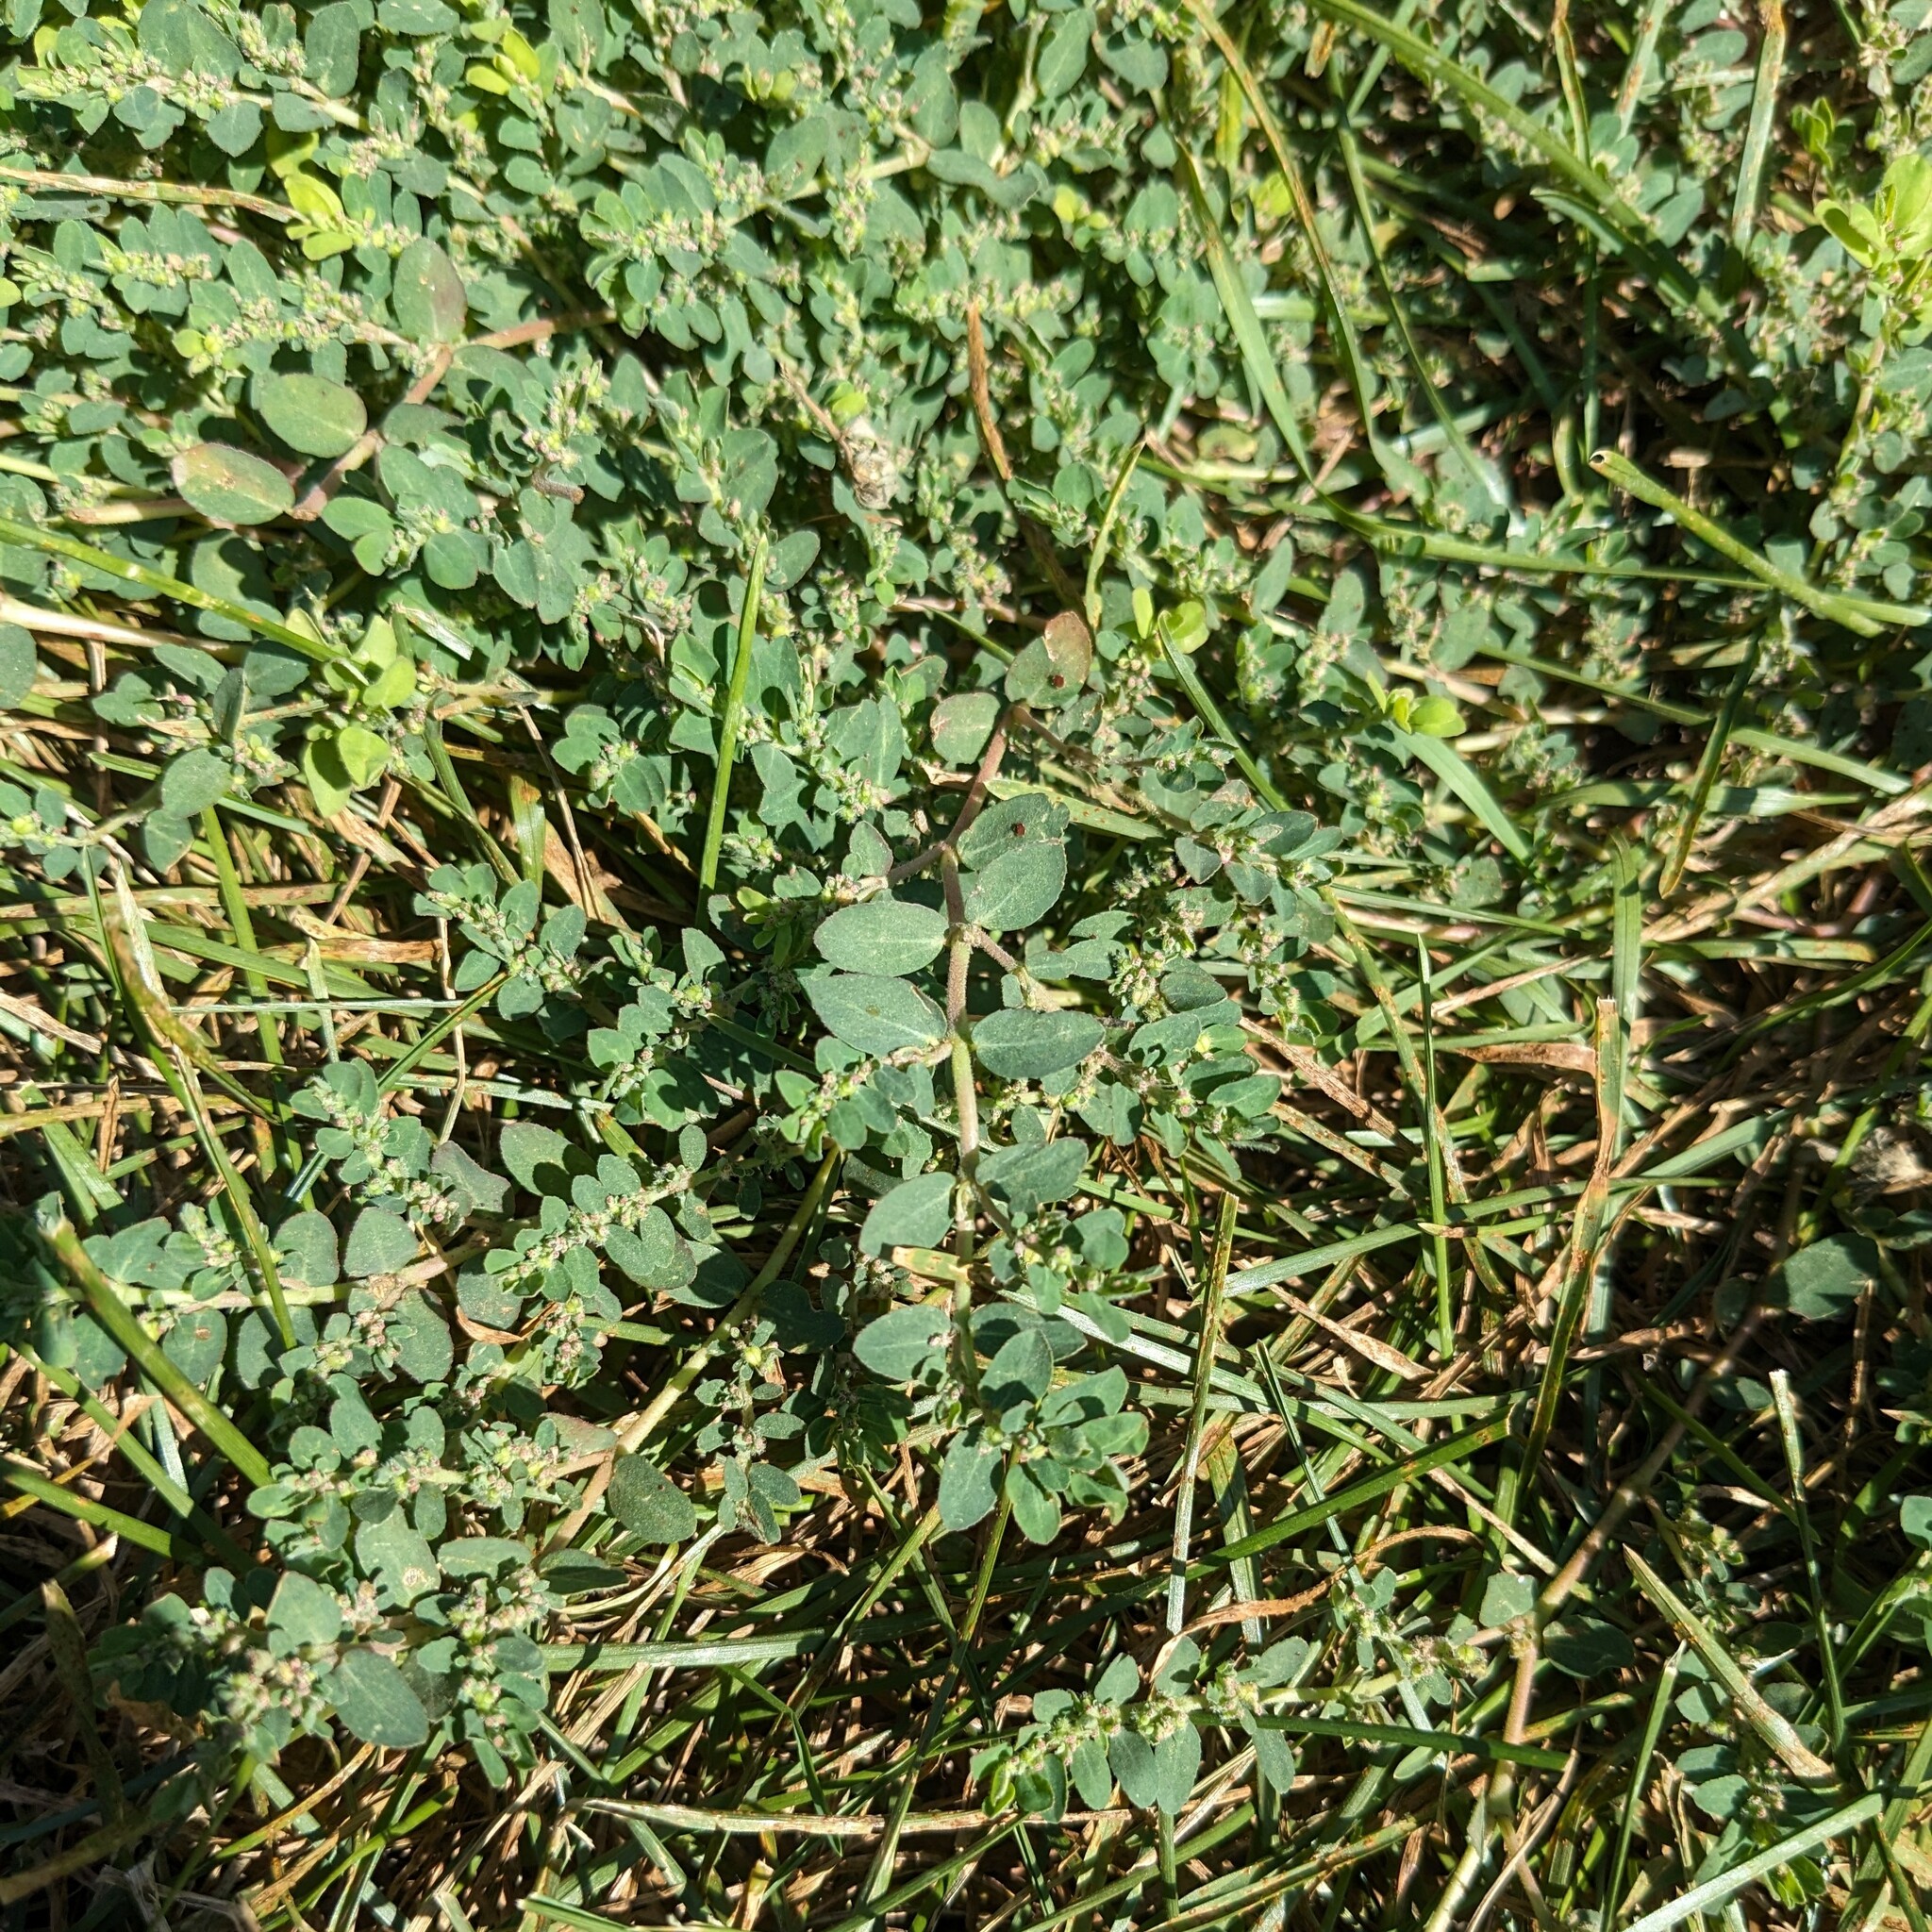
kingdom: Plantae
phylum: Tracheophyta
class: Magnoliopsida
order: Malpighiales
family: Euphorbiaceae
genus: Euphorbia
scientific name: Euphorbia prostrata
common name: Prostrate sandmat
